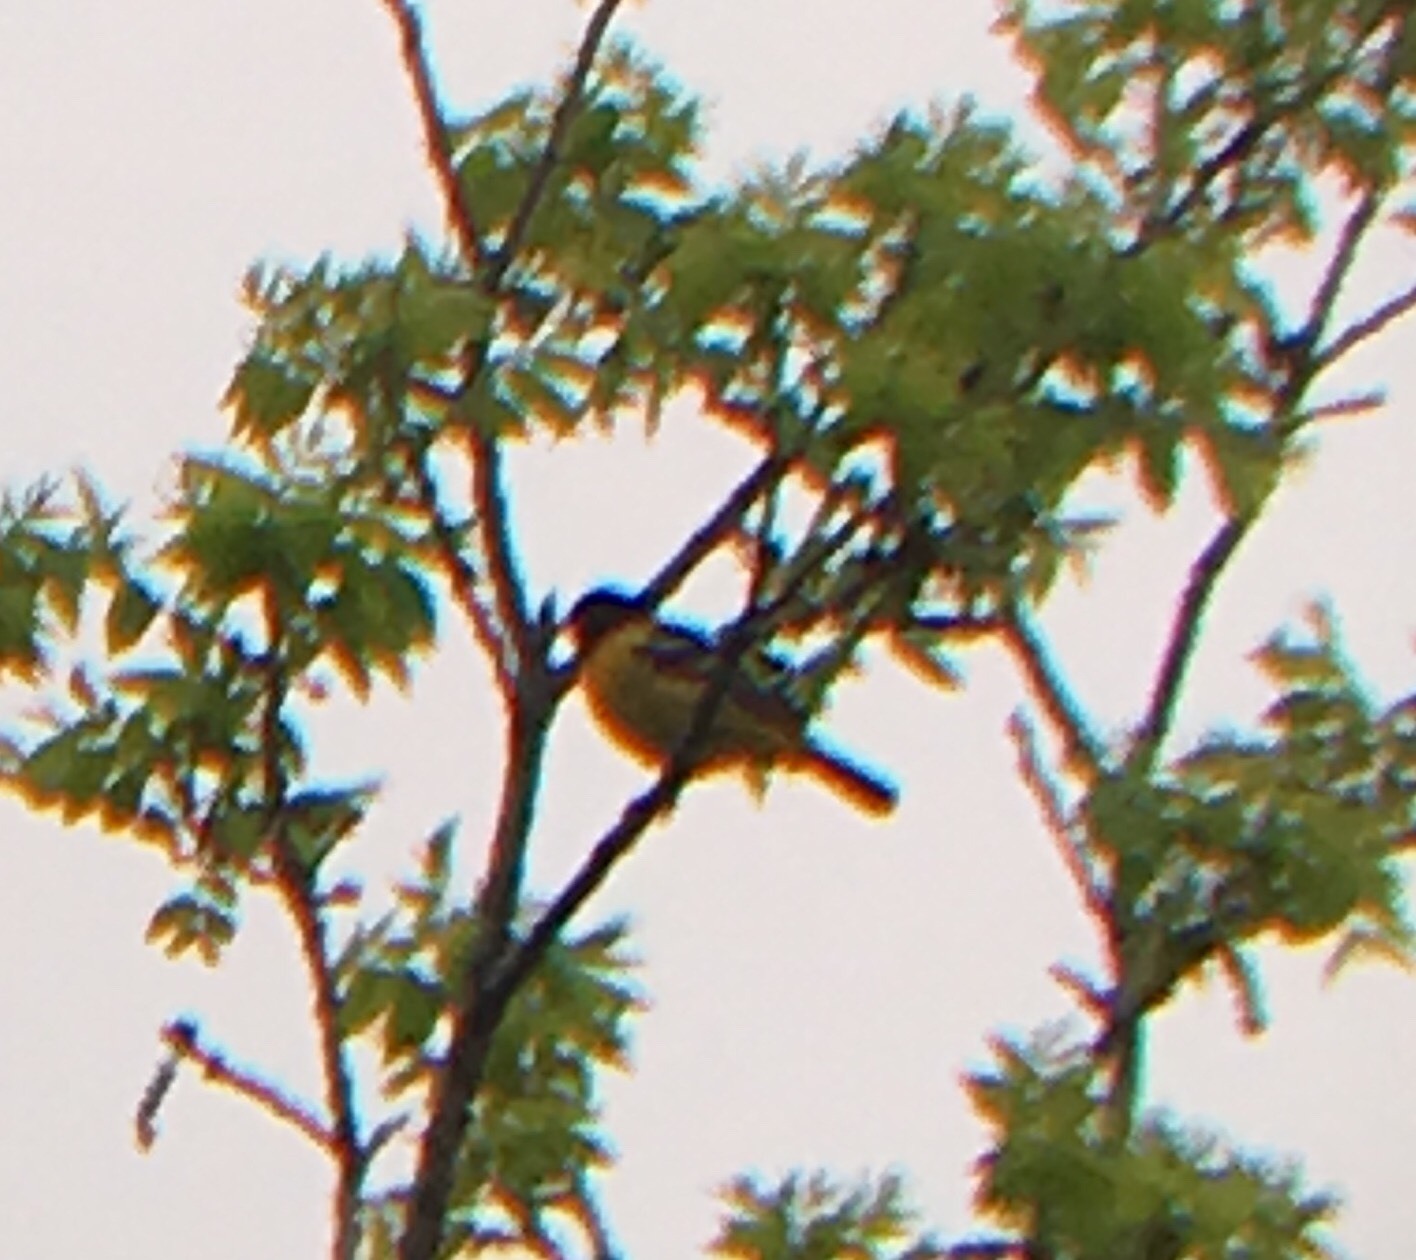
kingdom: Animalia
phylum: Chordata
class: Aves
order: Passeriformes
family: Icteridae
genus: Icterus
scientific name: Icterus galbula
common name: Baltimore oriole
